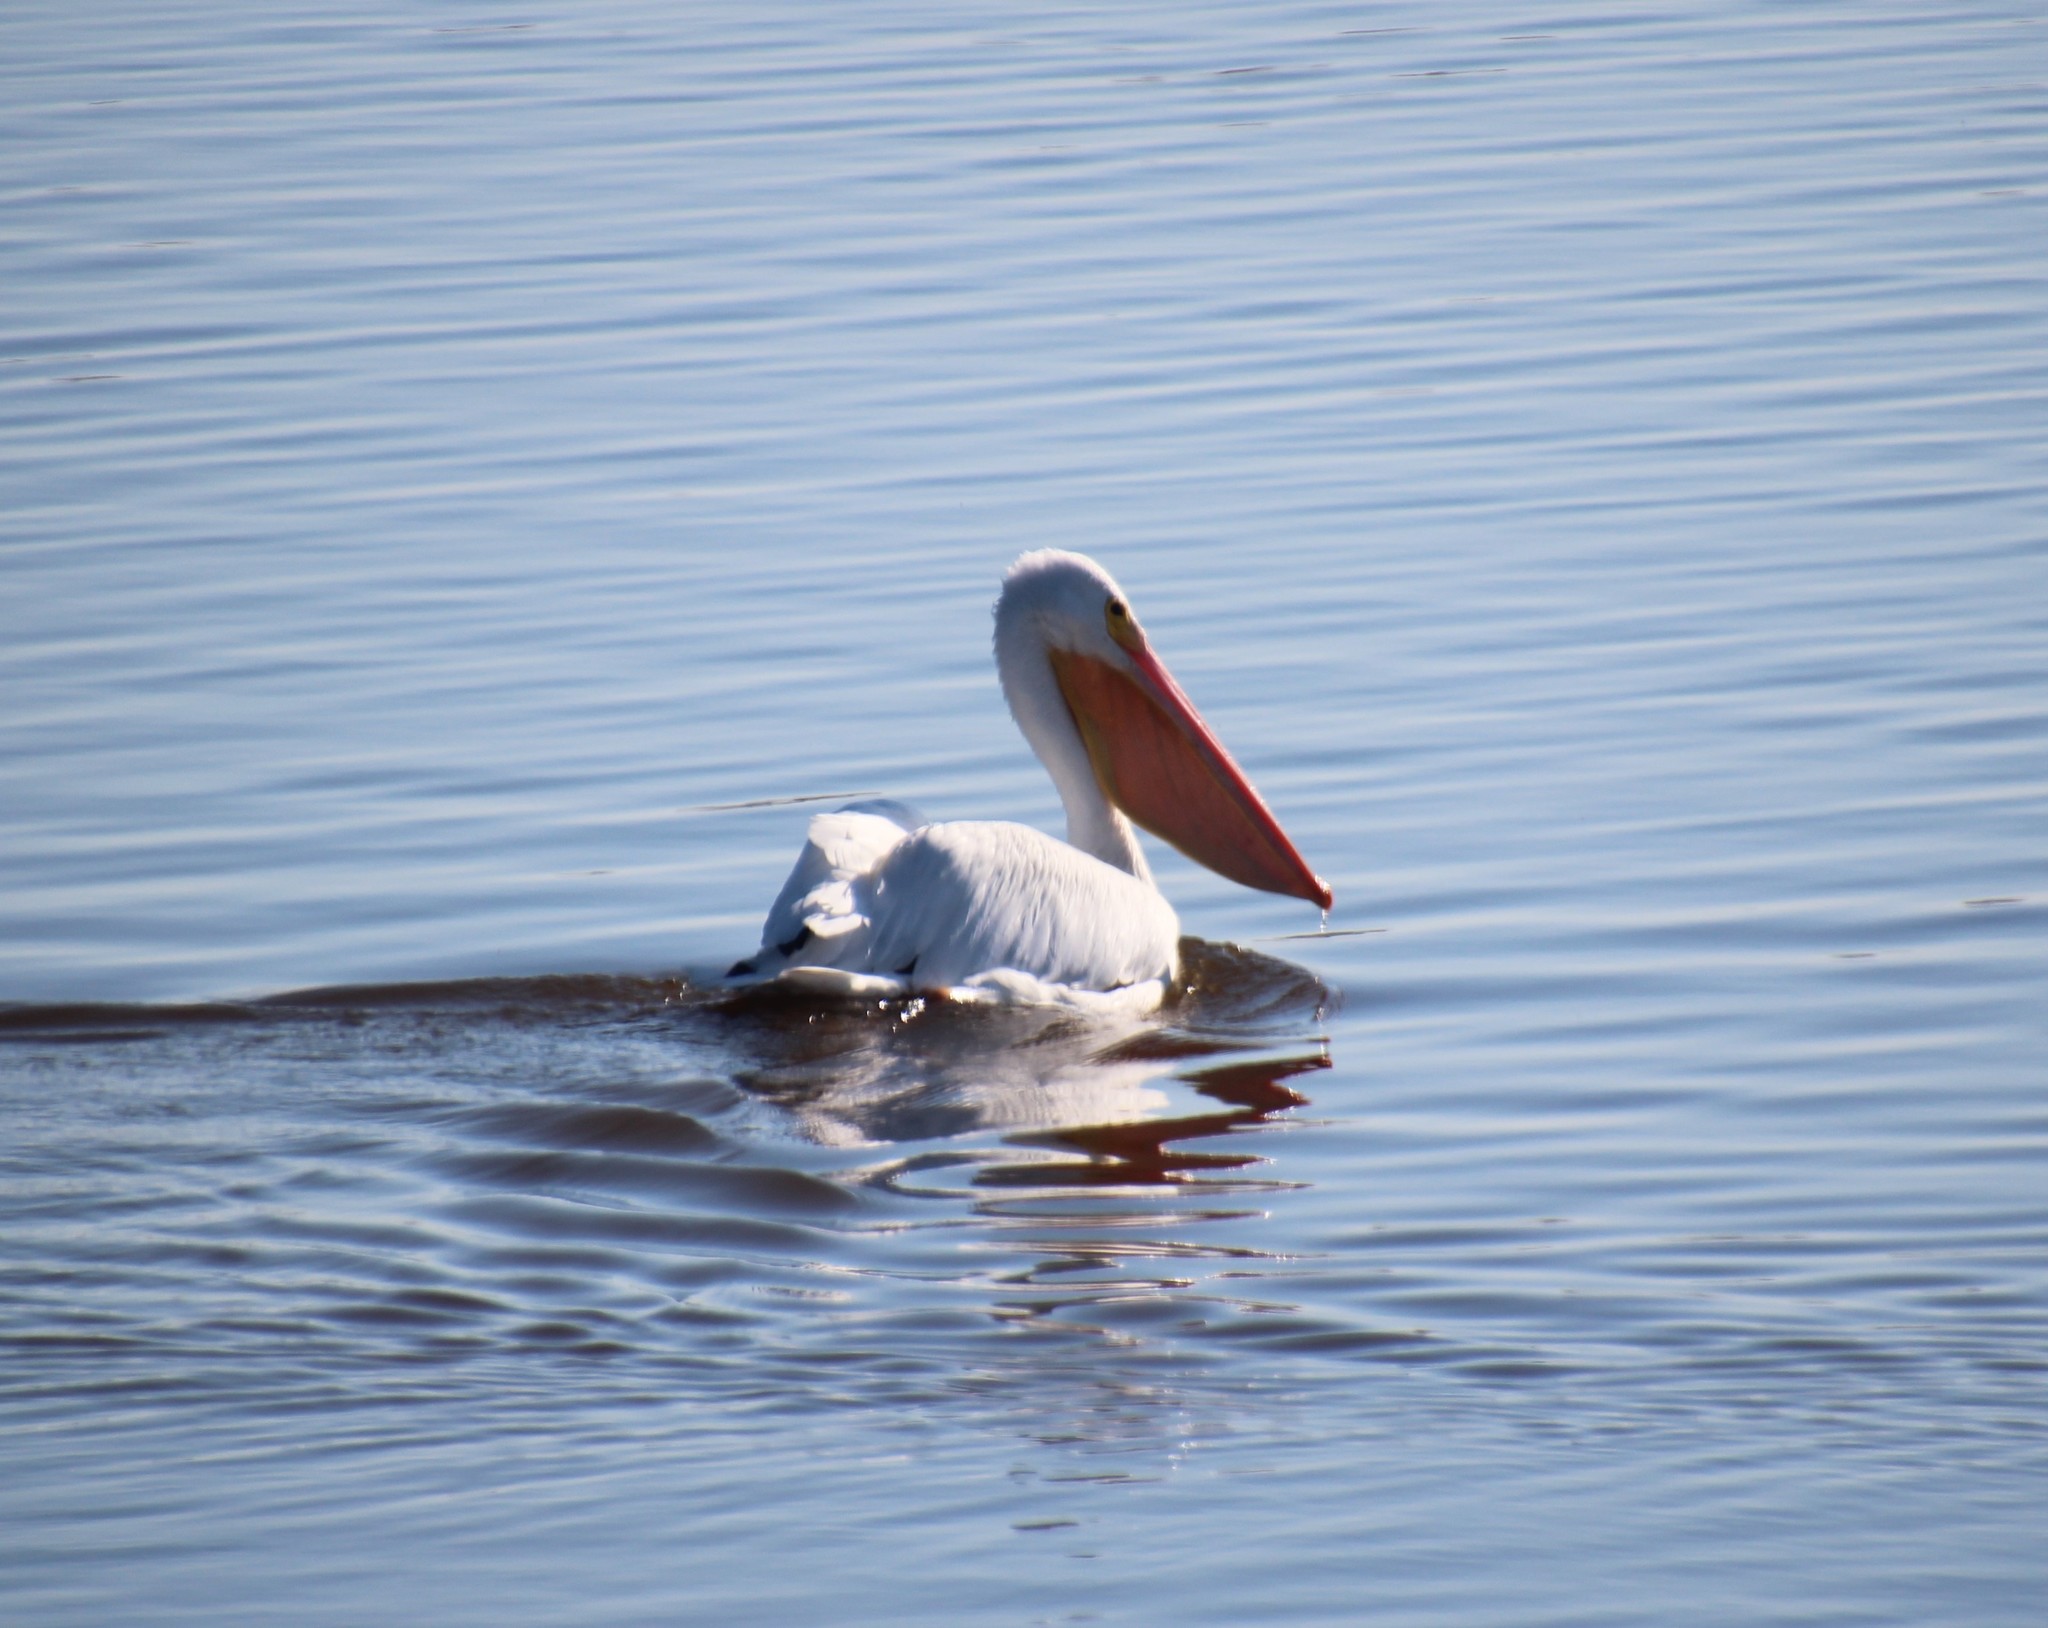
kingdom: Animalia
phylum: Chordata
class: Aves
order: Pelecaniformes
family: Pelecanidae
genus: Pelecanus
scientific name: Pelecanus erythrorhynchos
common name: American white pelican
